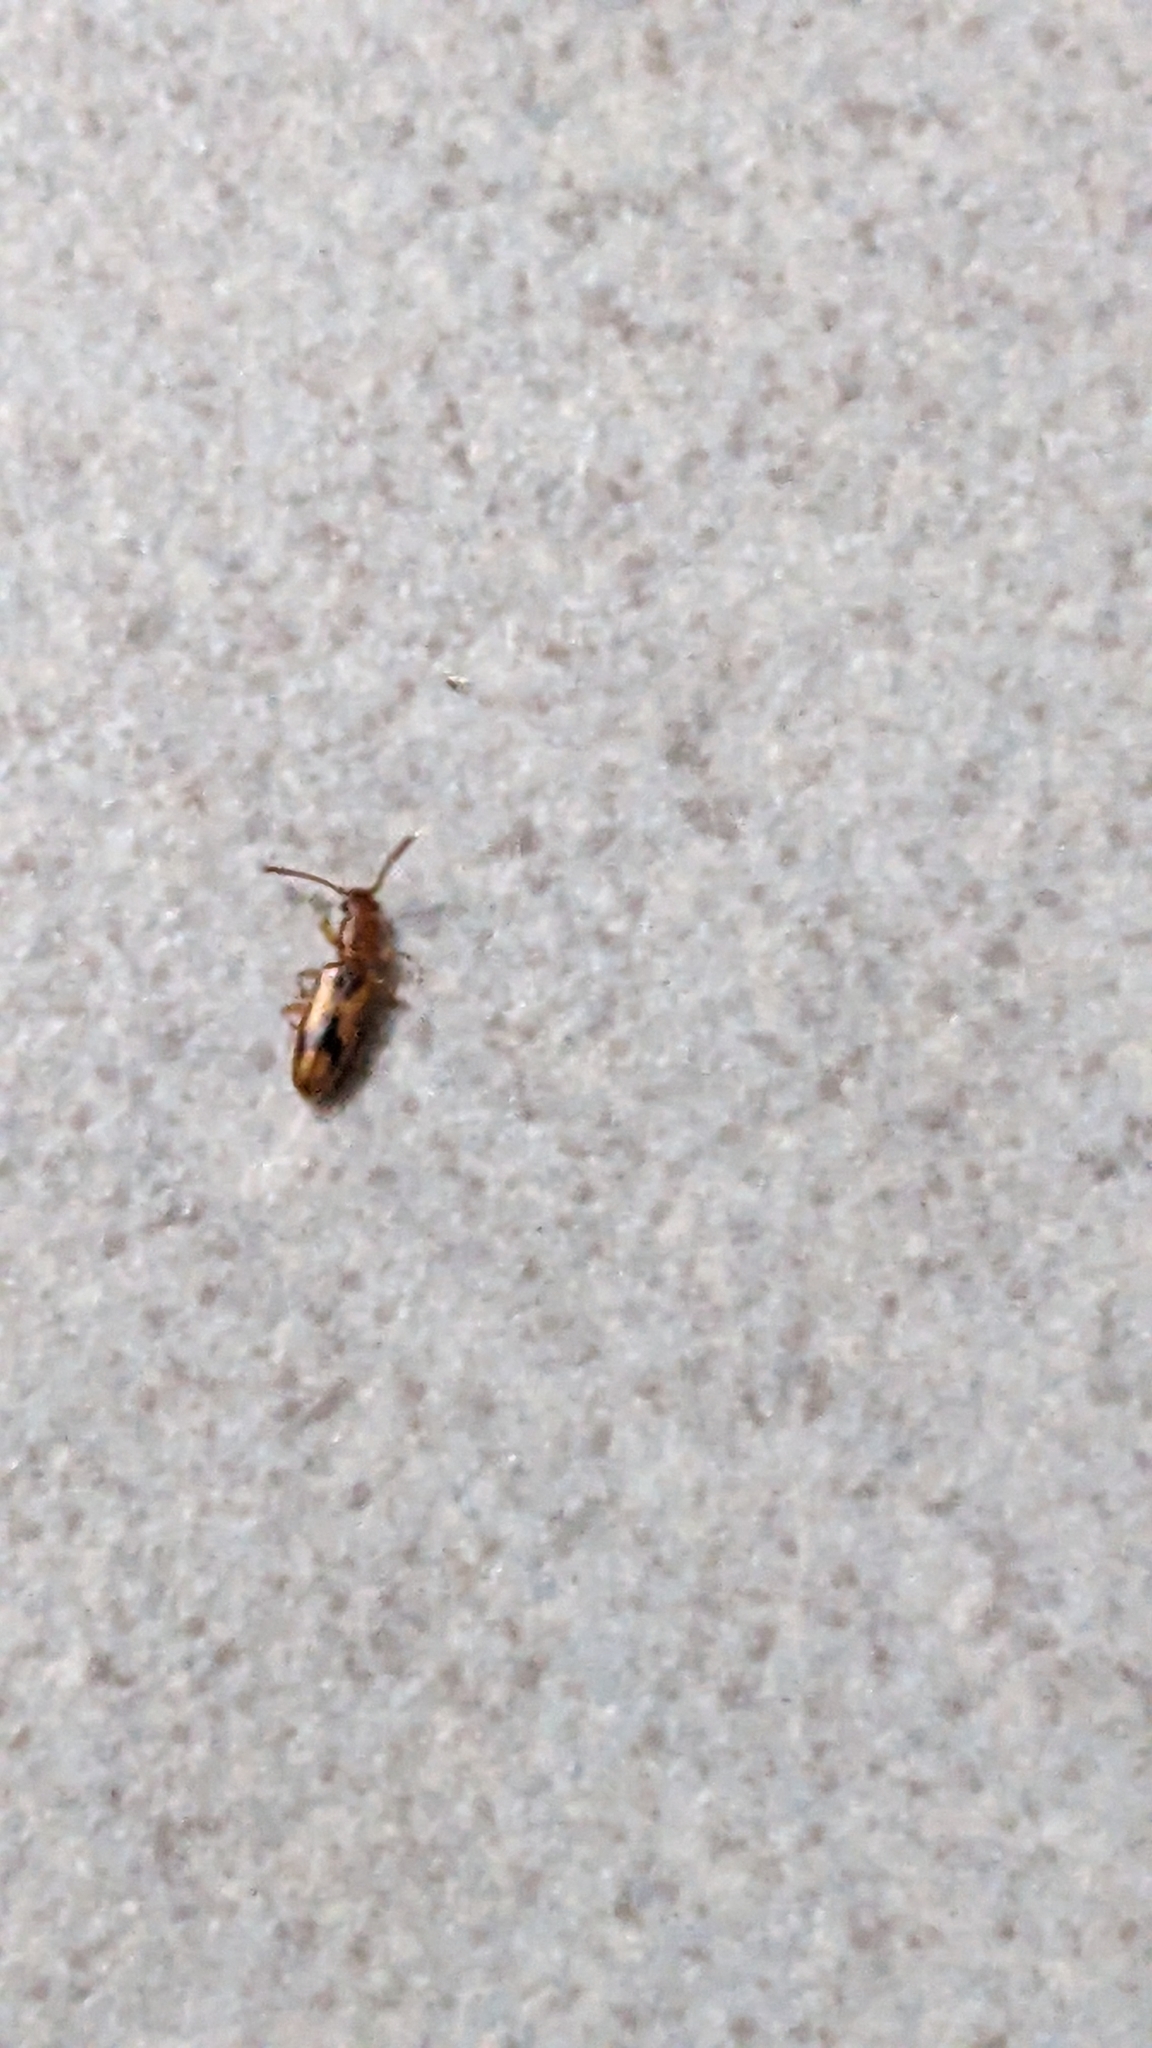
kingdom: Animalia
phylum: Arthropoda
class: Insecta
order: Coleoptera
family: Silvanidae
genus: Cryptamorpha
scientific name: Cryptamorpha desjardinsi
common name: Cryptamorpha
